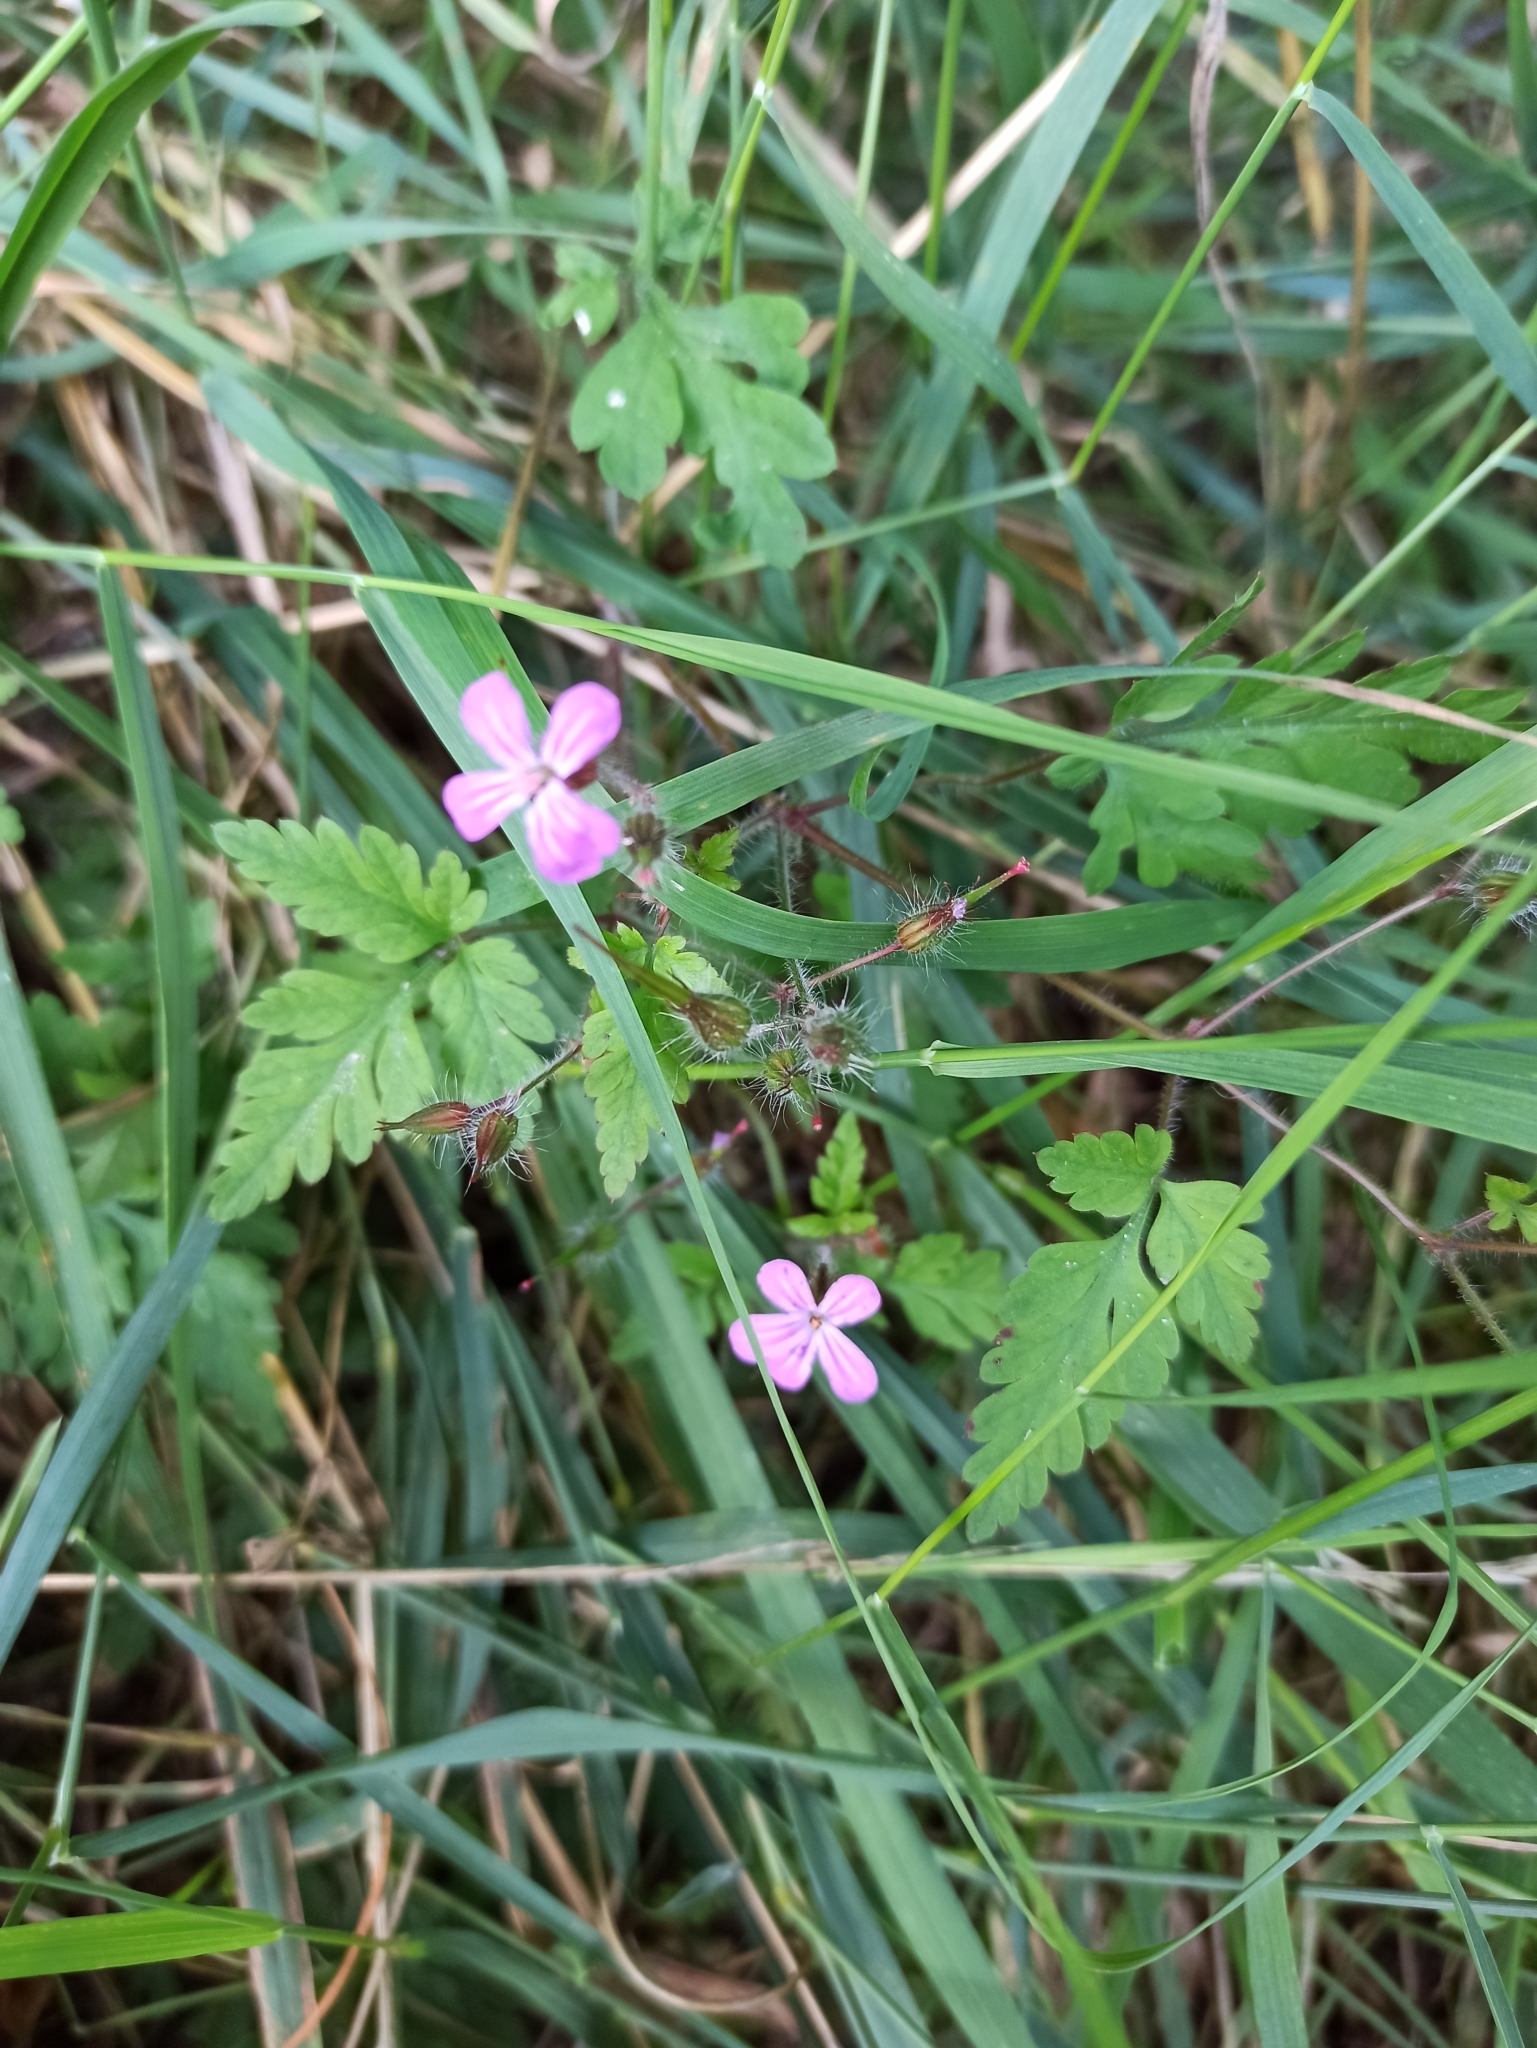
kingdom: Plantae
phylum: Tracheophyta
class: Magnoliopsida
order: Geraniales
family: Geraniaceae
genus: Geranium
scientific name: Geranium robertianum
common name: Herb-robert
